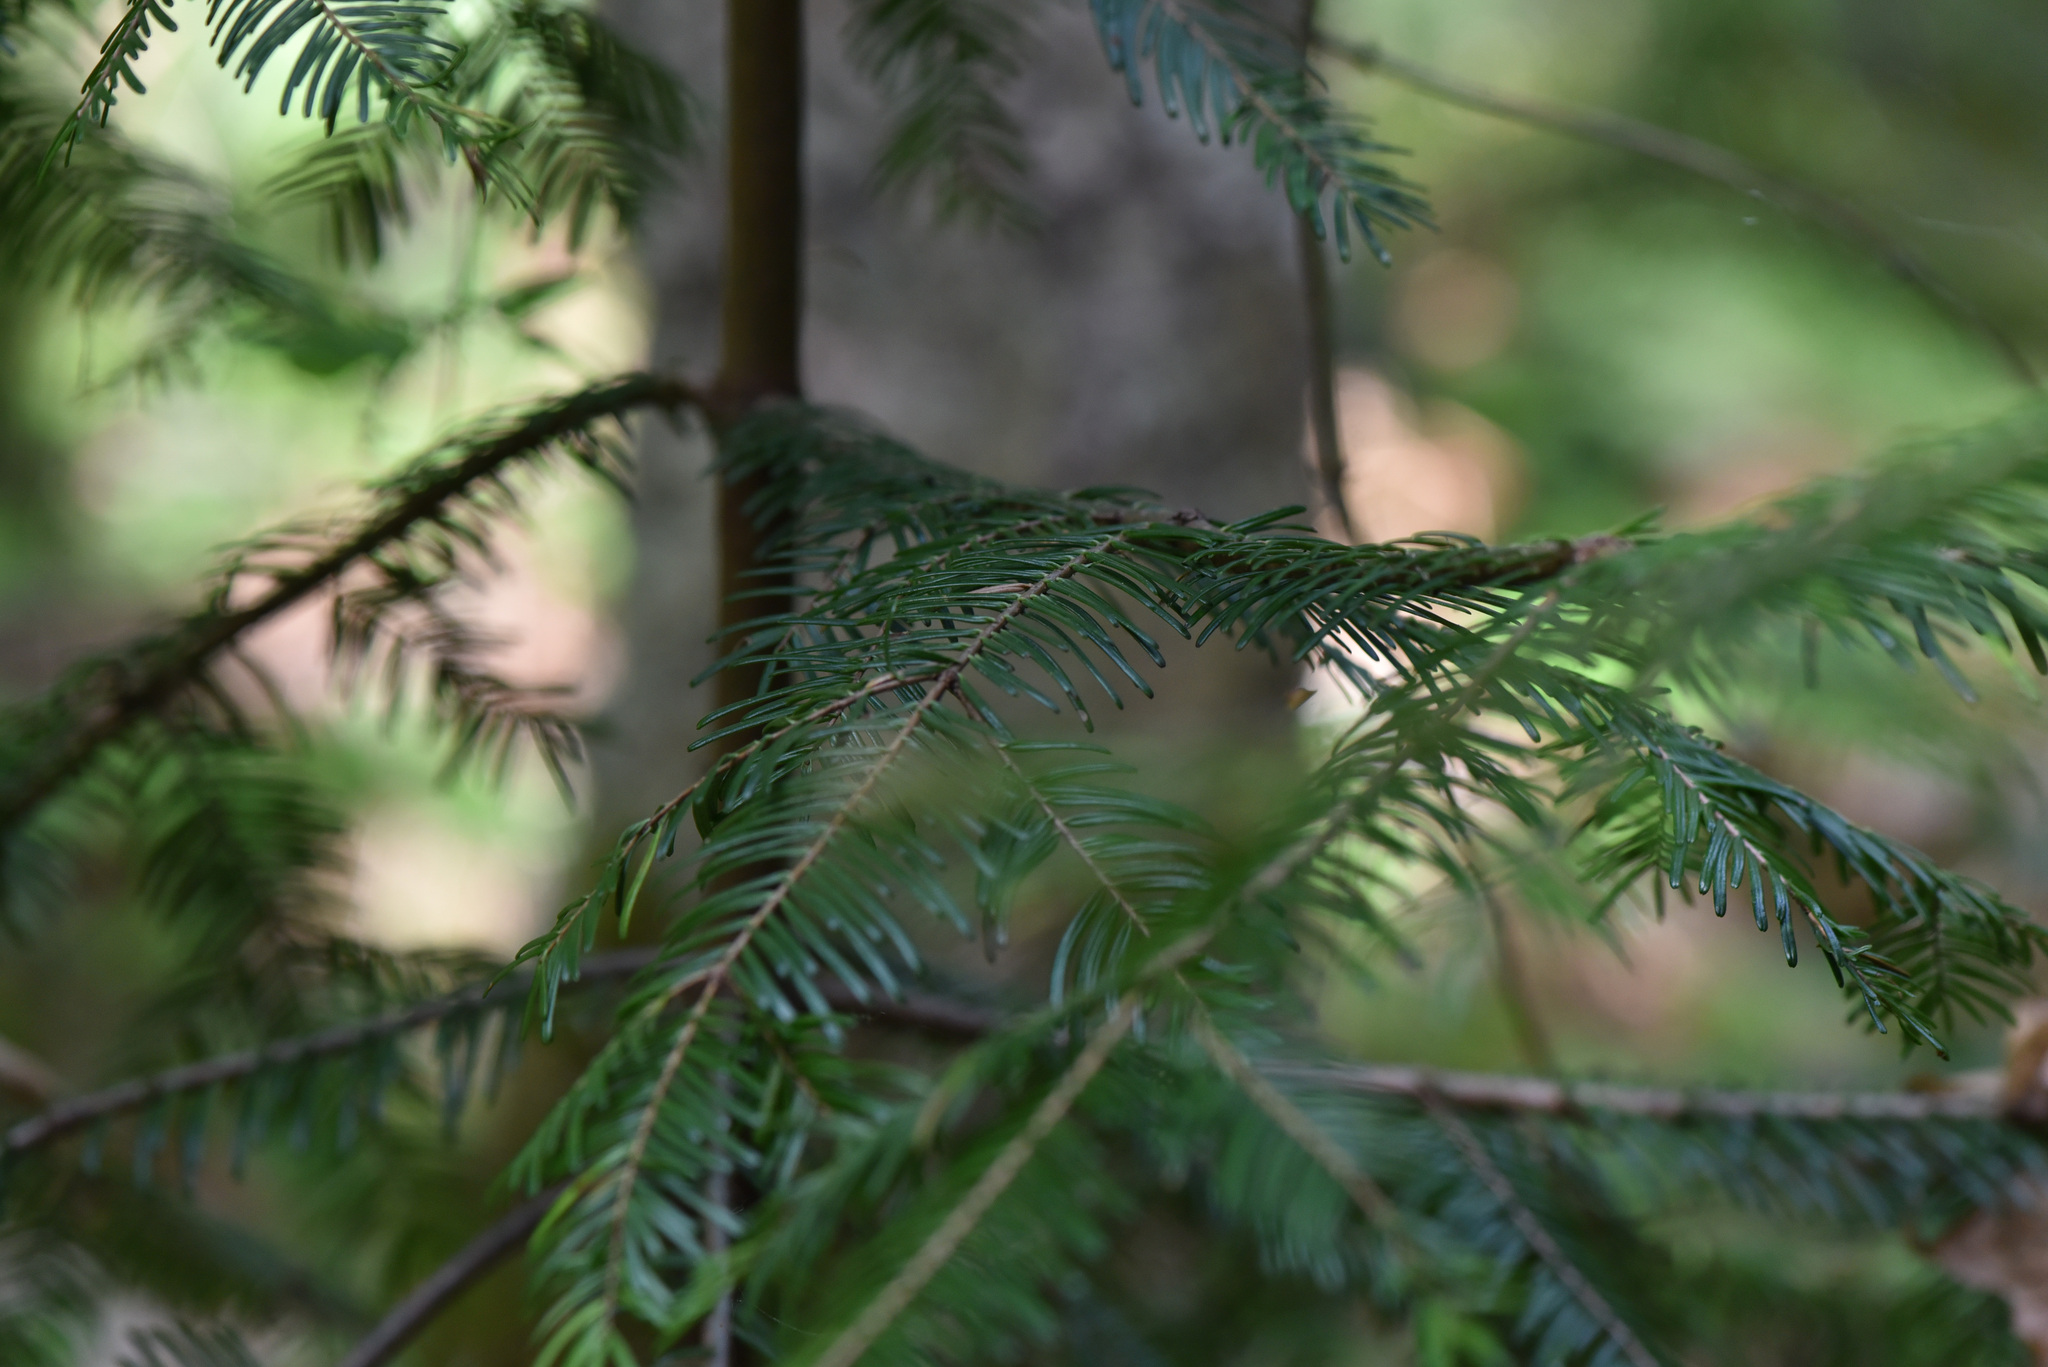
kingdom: Plantae
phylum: Tracheophyta
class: Pinopsida
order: Pinales
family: Pinaceae
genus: Abies
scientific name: Abies grandis
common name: Giant fir
